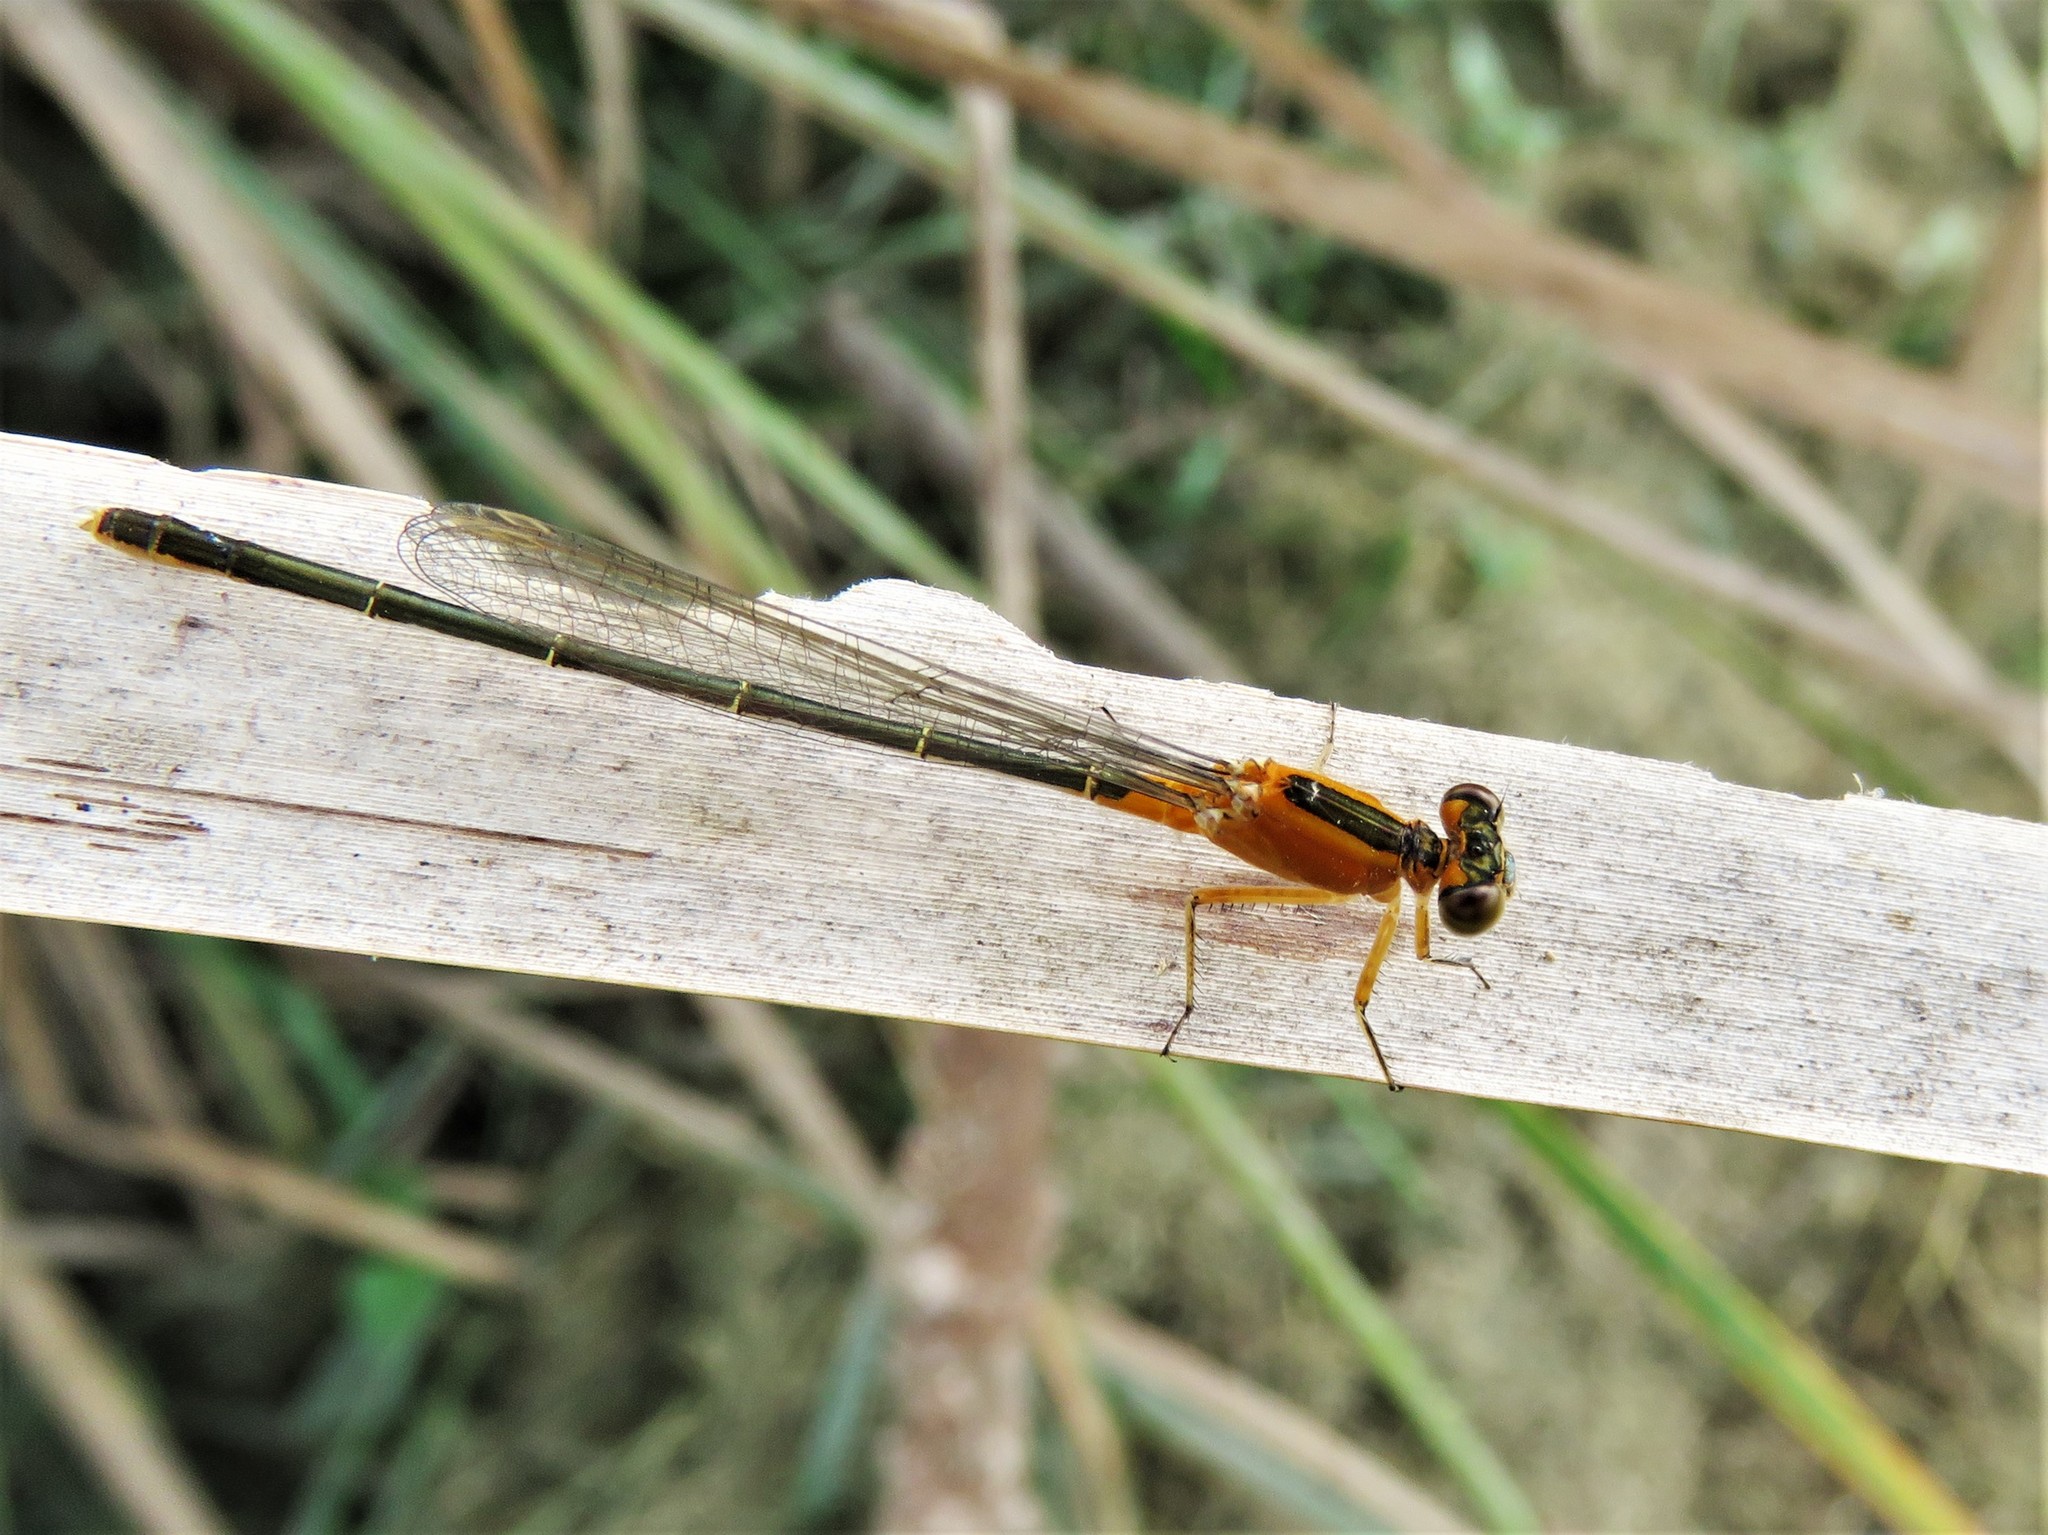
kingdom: Animalia
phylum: Arthropoda
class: Insecta
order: Odonata
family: Coenagrionidae
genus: Ischnura
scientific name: Ischnura ramburii
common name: Rambur's forktail
